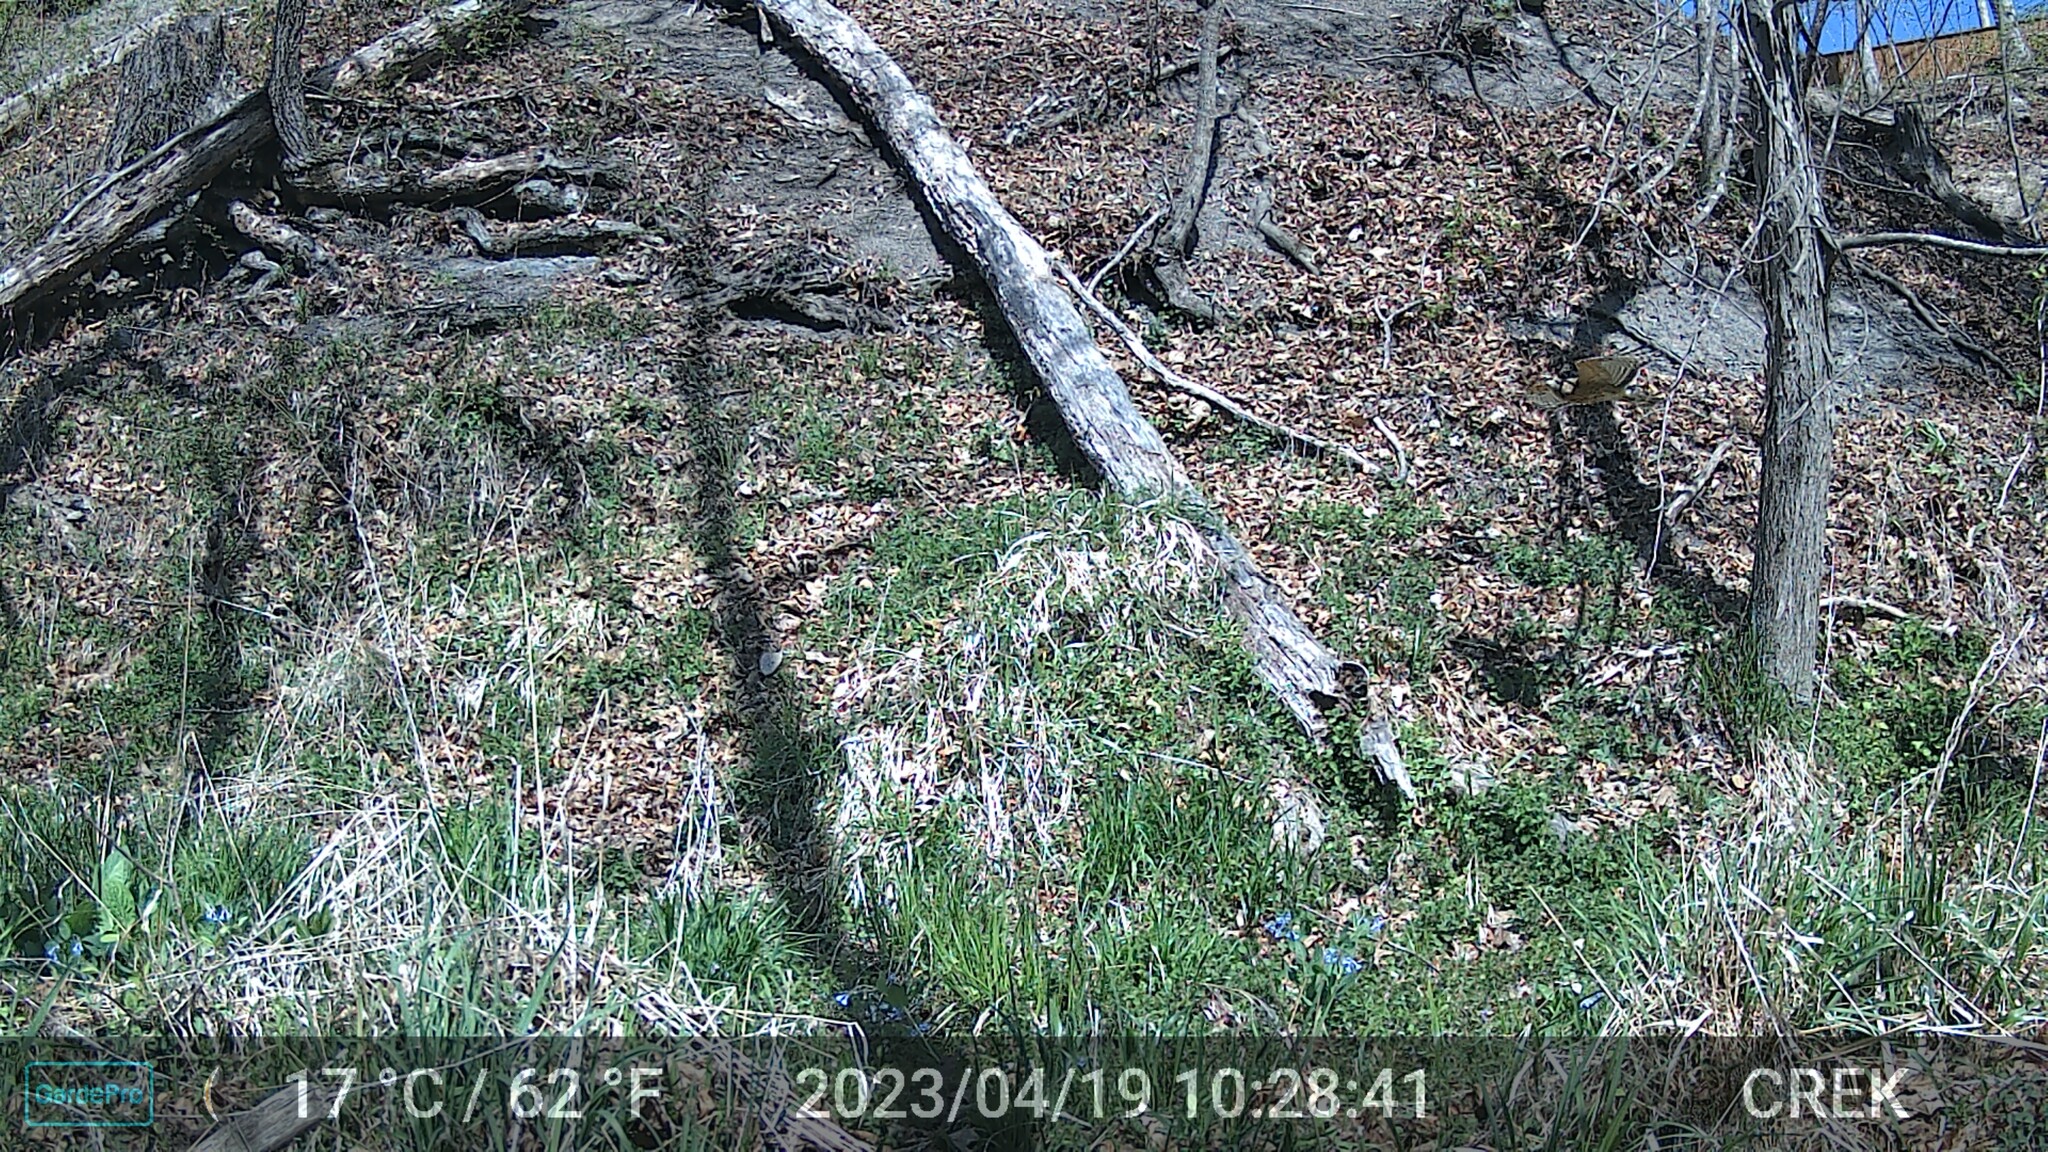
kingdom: Animalia
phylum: Chordata
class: Aves
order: Accipitriformes
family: Accipitridae
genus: Buteo
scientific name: Buteo lineatus
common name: Red-shouldered hawk
